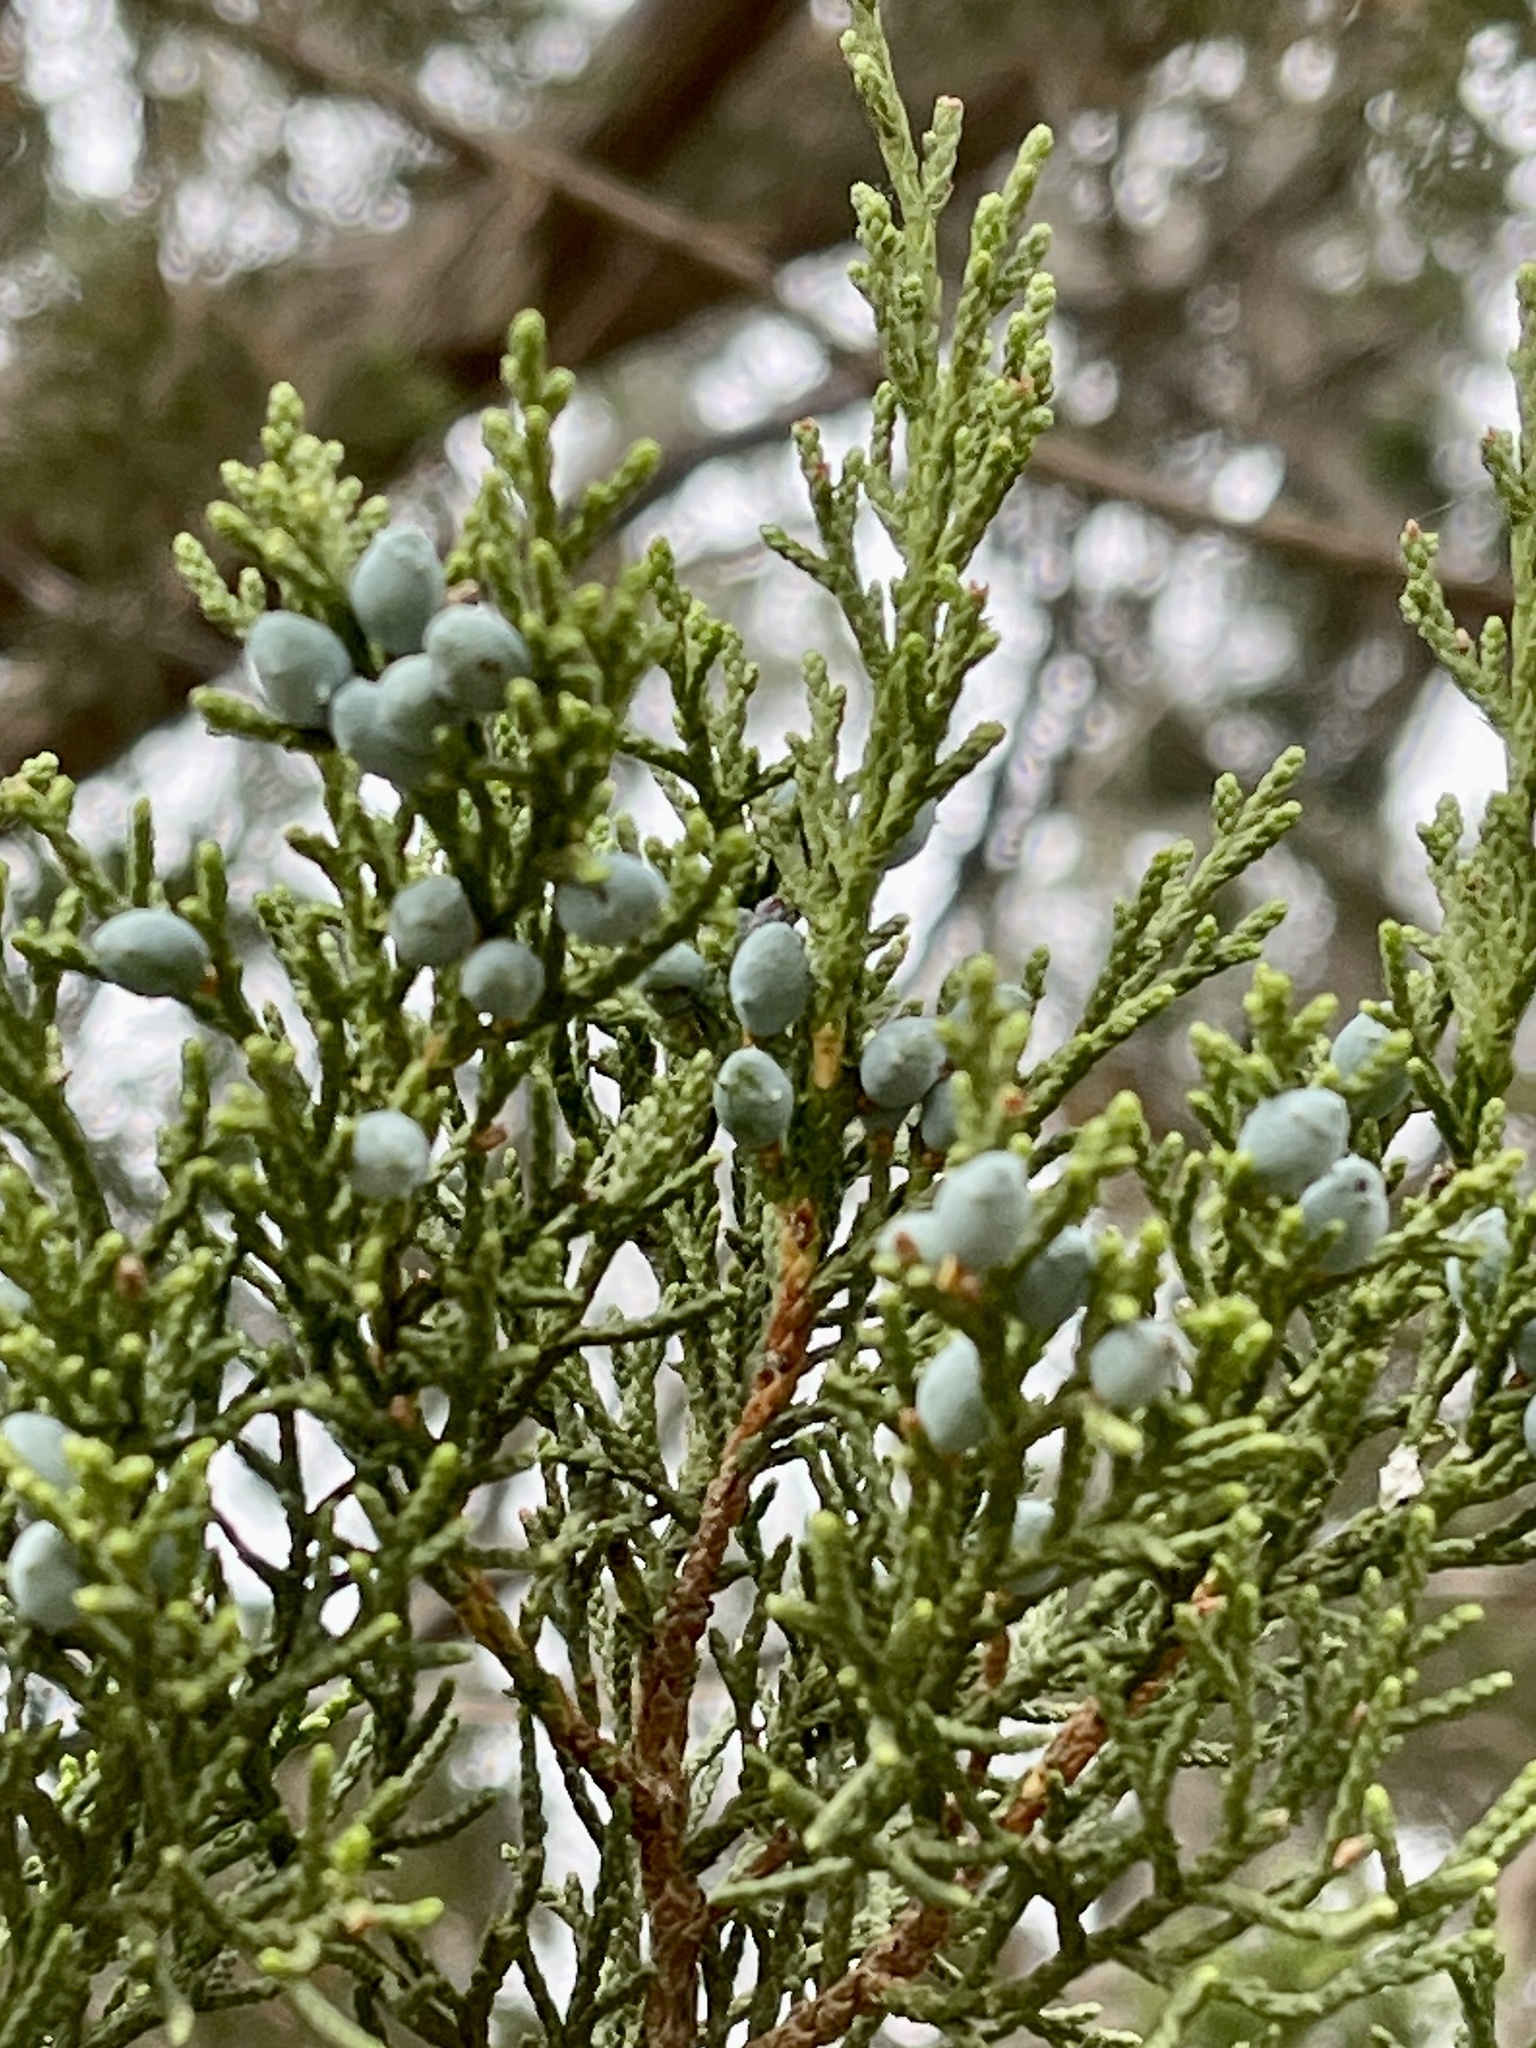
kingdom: Plantae
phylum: Tracheophyta
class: Pinopsida
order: Pinales
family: Cupressaceae
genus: Juniperus
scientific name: Juniperus ashei
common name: Mexican juniper
